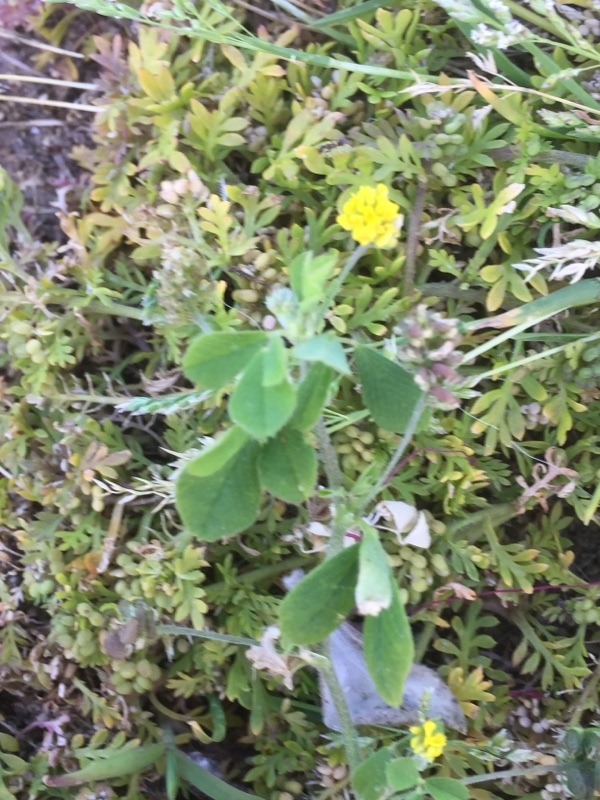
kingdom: Plantae
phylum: Tracheophyta
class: Magnoliopsida
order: Brassicales
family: Brassicaceae
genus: Lepidium
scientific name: Lepidium didymum
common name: Lesser swinecress
